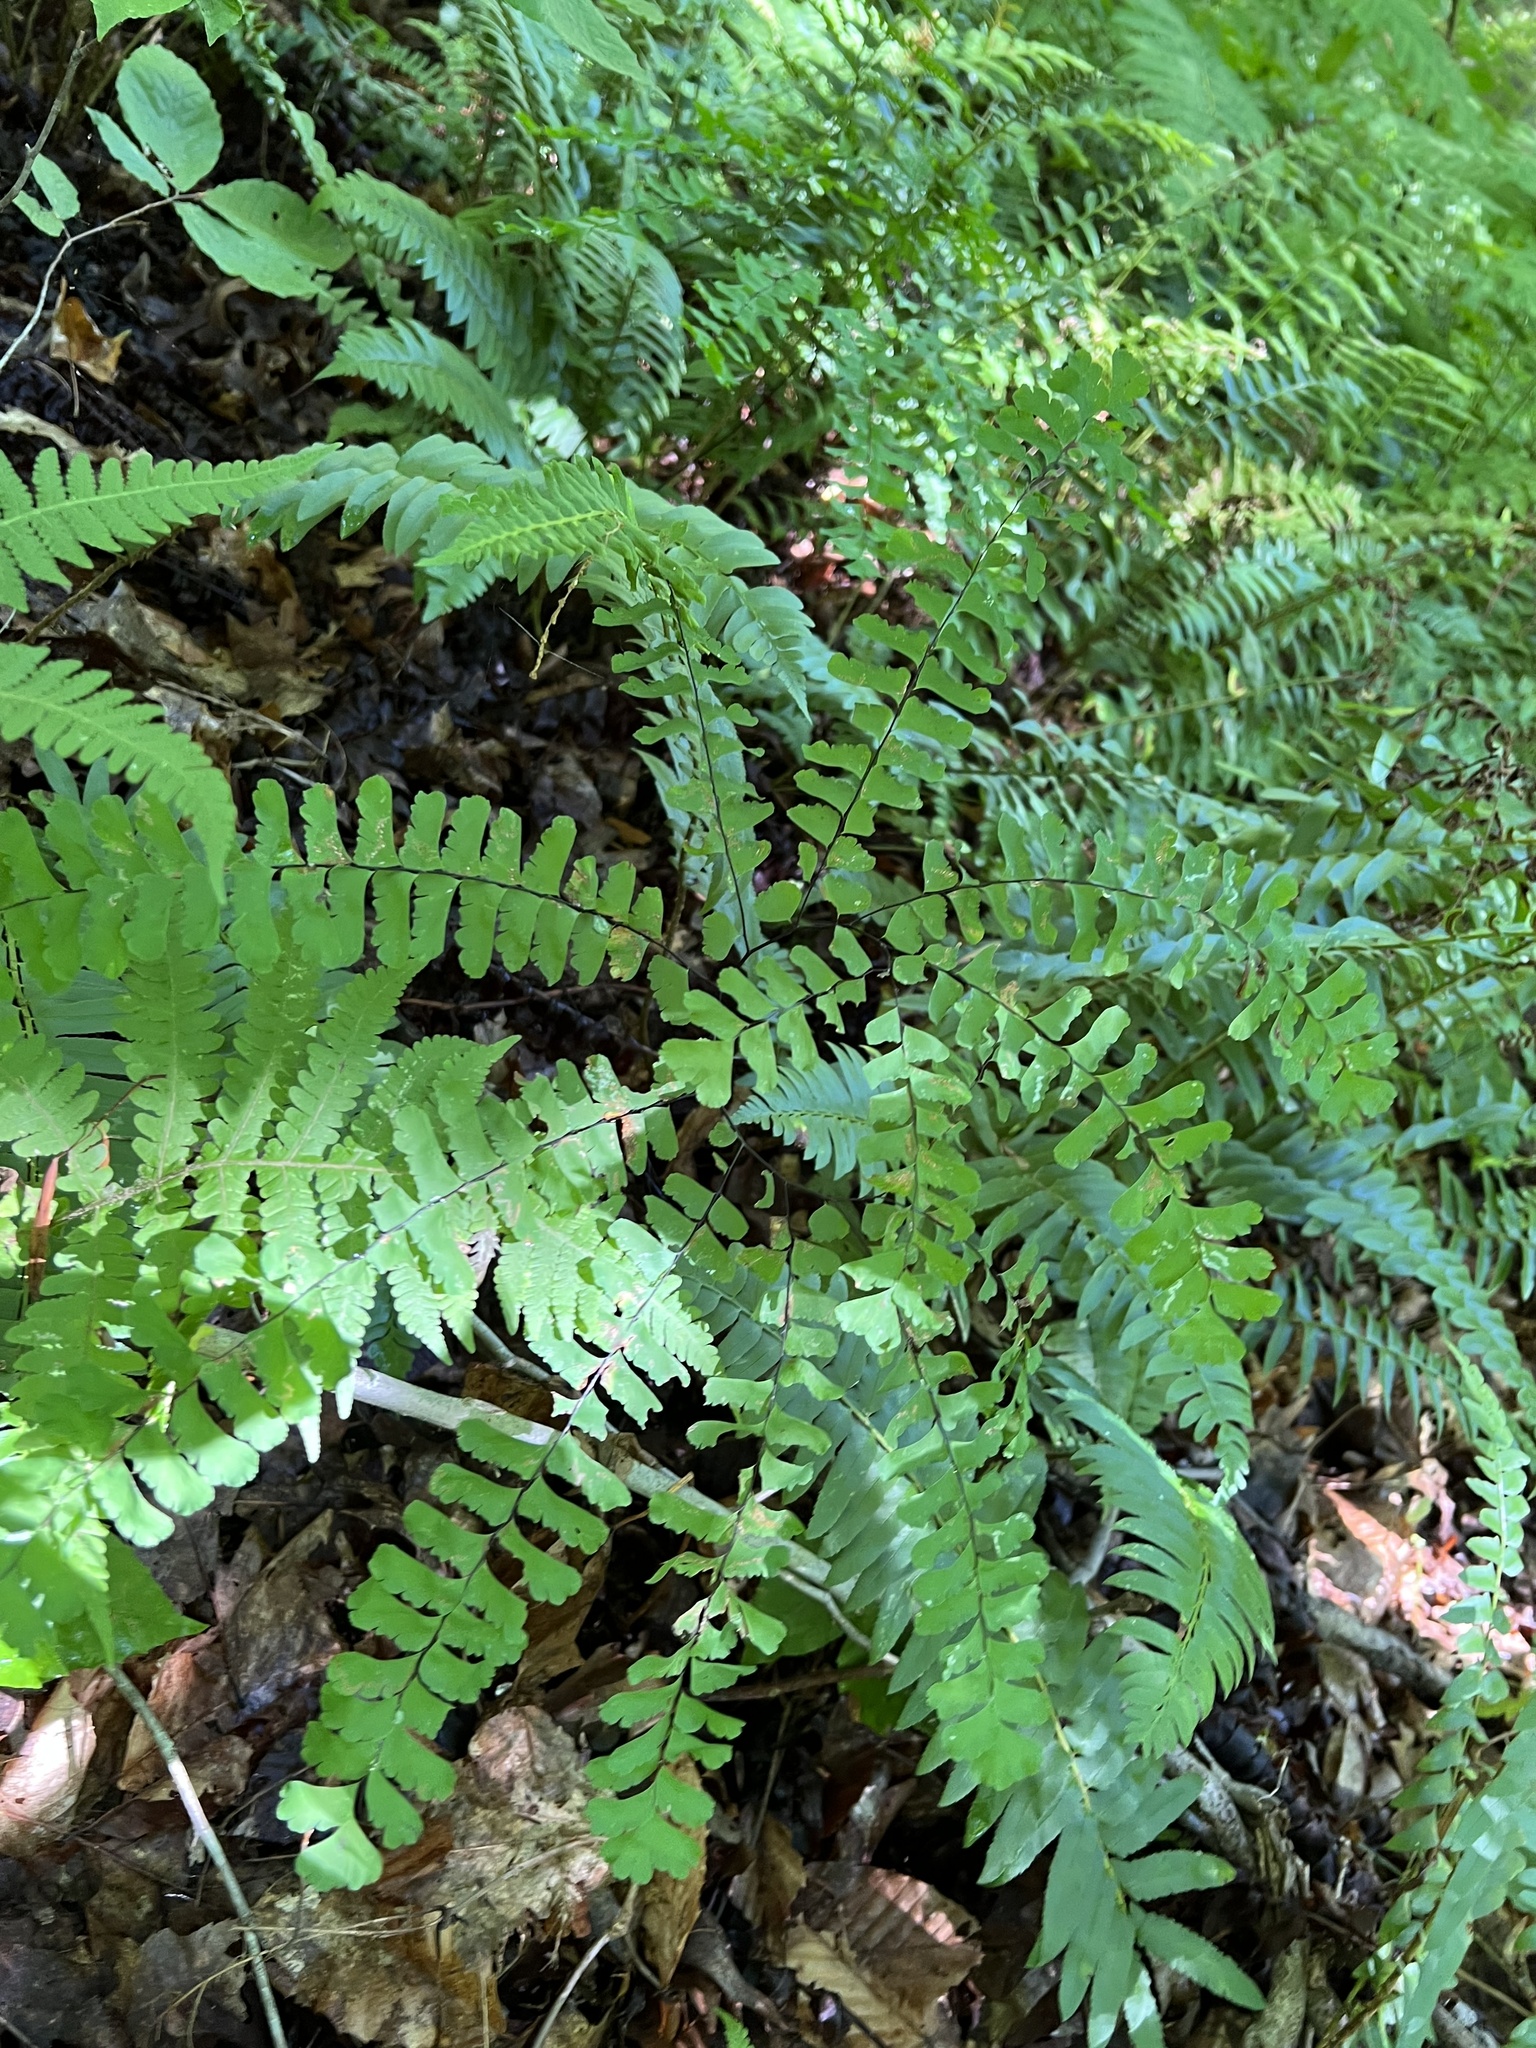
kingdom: Plantae
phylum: Tracheophyta
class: Polypodiopsida
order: Polypodiales
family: Pteridaceae
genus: Adiantum
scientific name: Adiantum pedatum
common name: Five-finger fern
